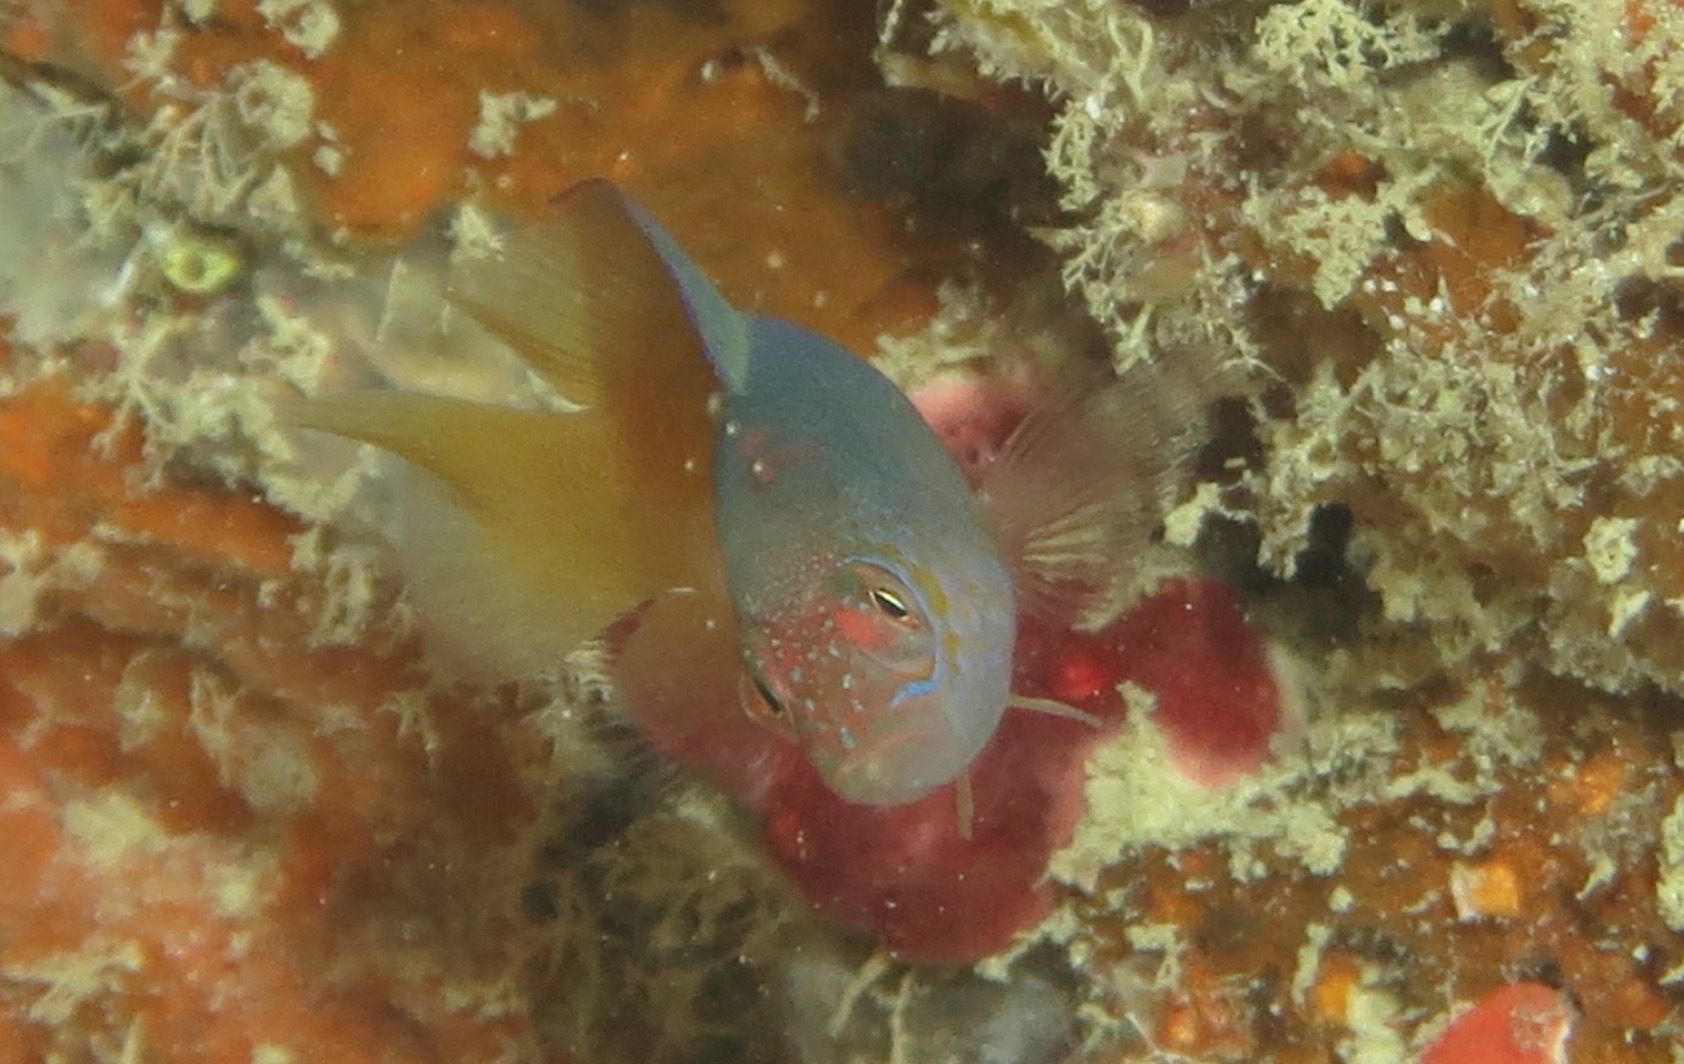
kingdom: Animalia
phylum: Chordata
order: Perciformes
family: Pseudochromidae
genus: Cypho
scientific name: Cypho purpurascens
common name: Oblique-lined dottyback
